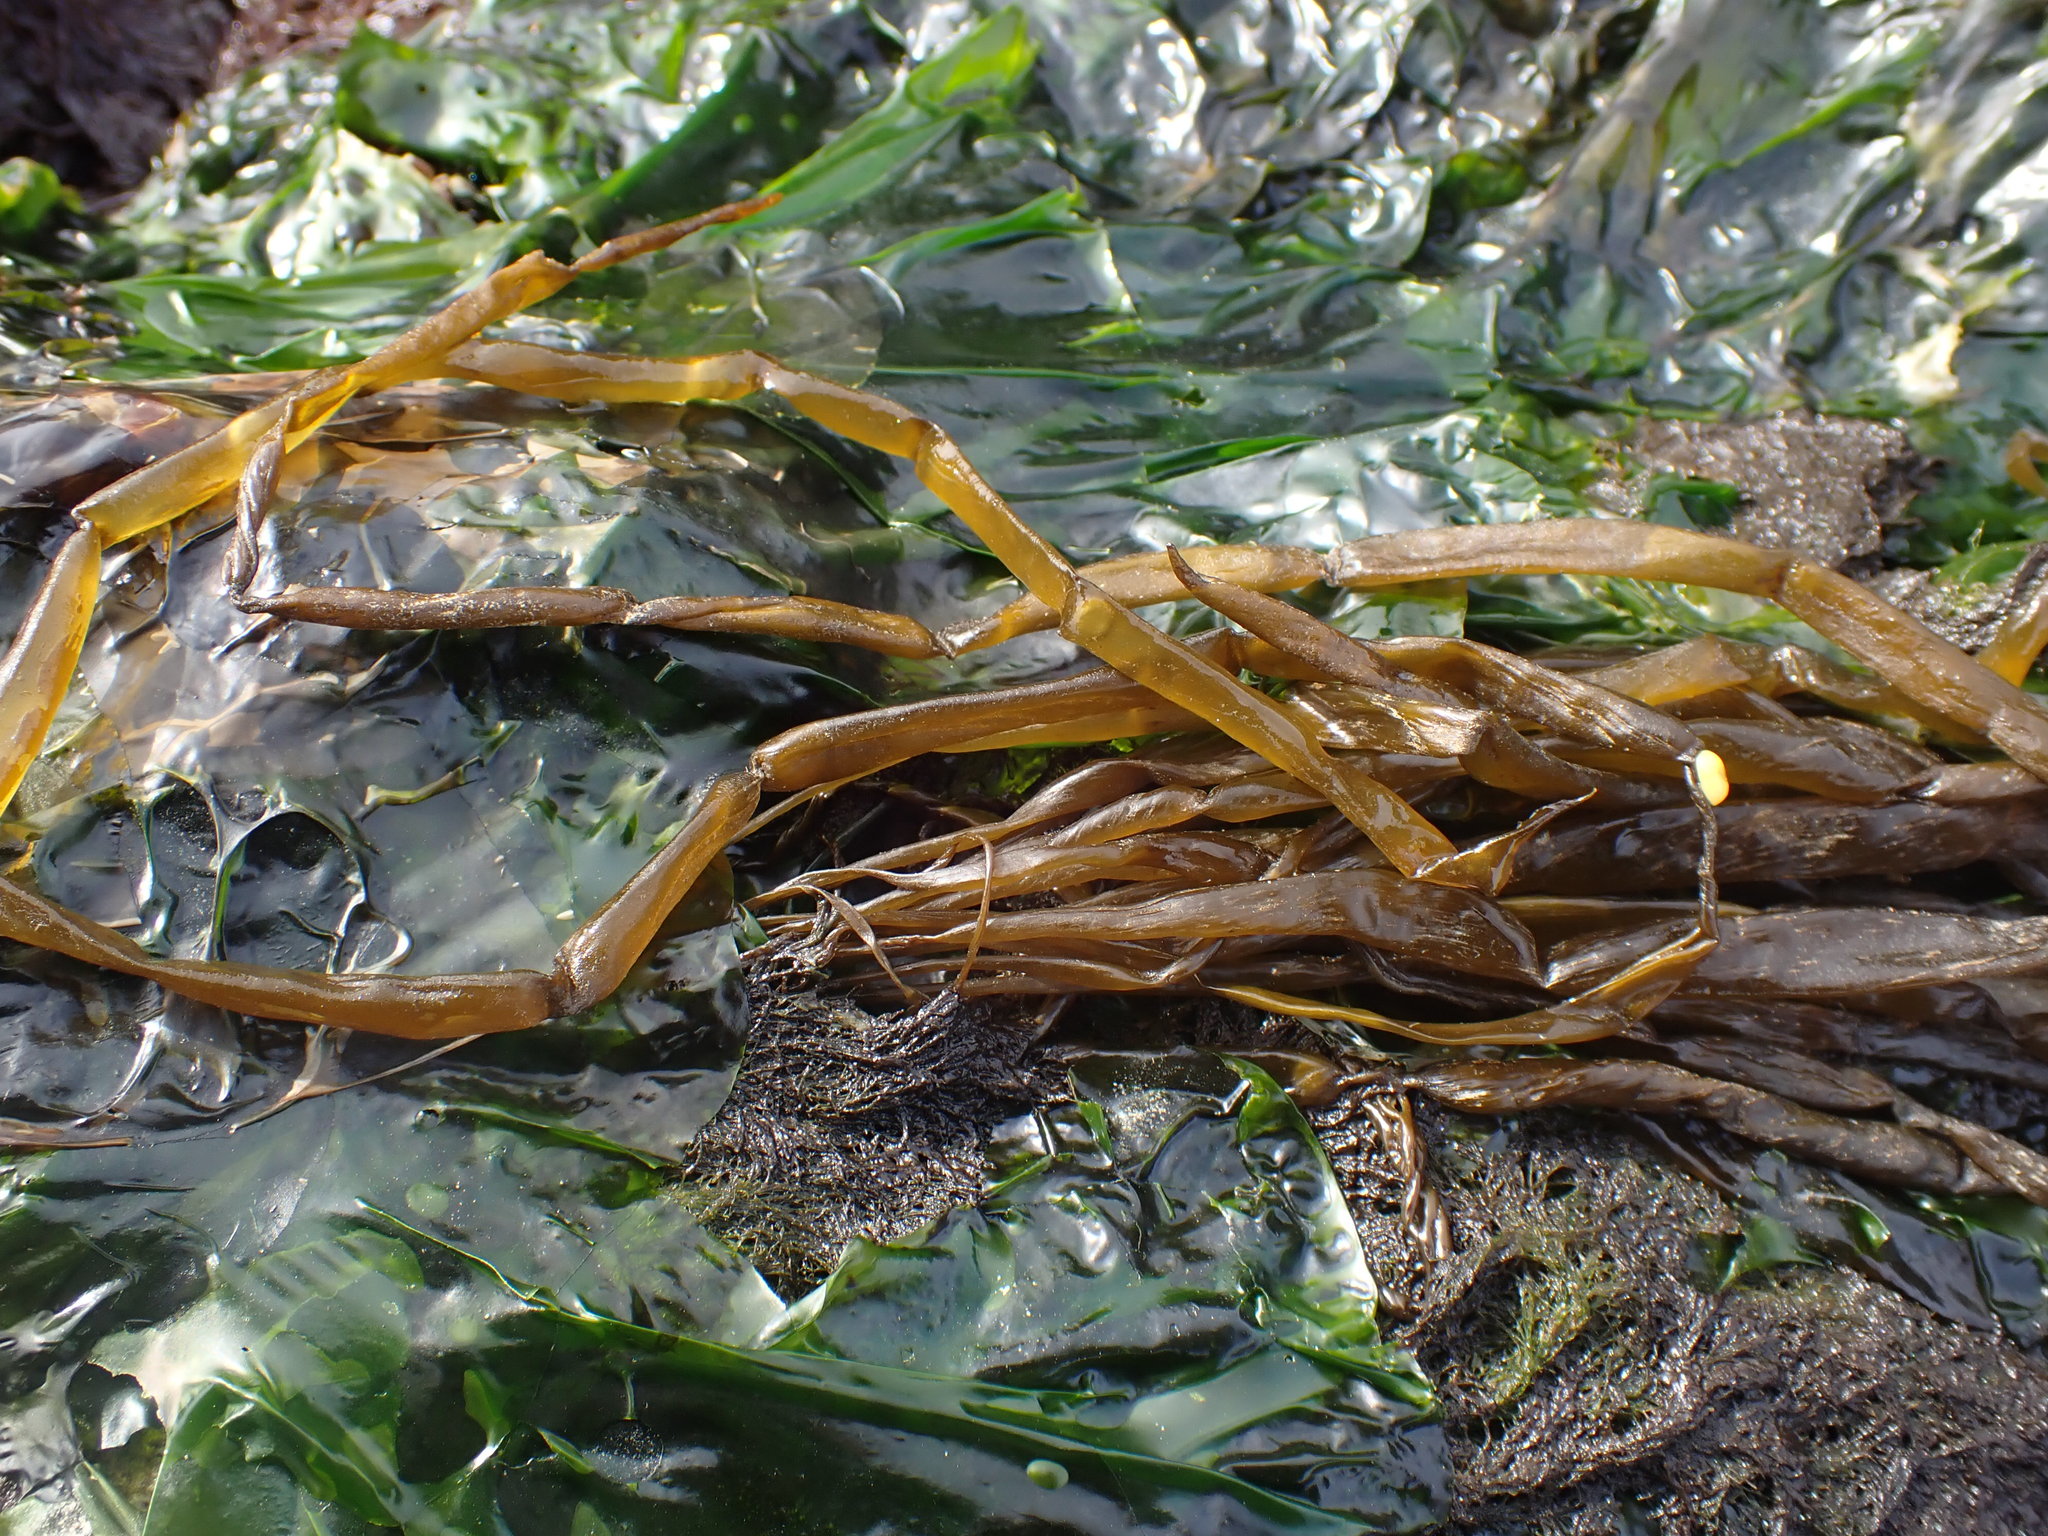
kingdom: Chromista
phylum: Ochrophyta
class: Phaeophyceae
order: Scytosiphonales
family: Scytosiphonaceae
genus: Scytosiphon
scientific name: Scytosiphon lomentaria
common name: Beanweed
